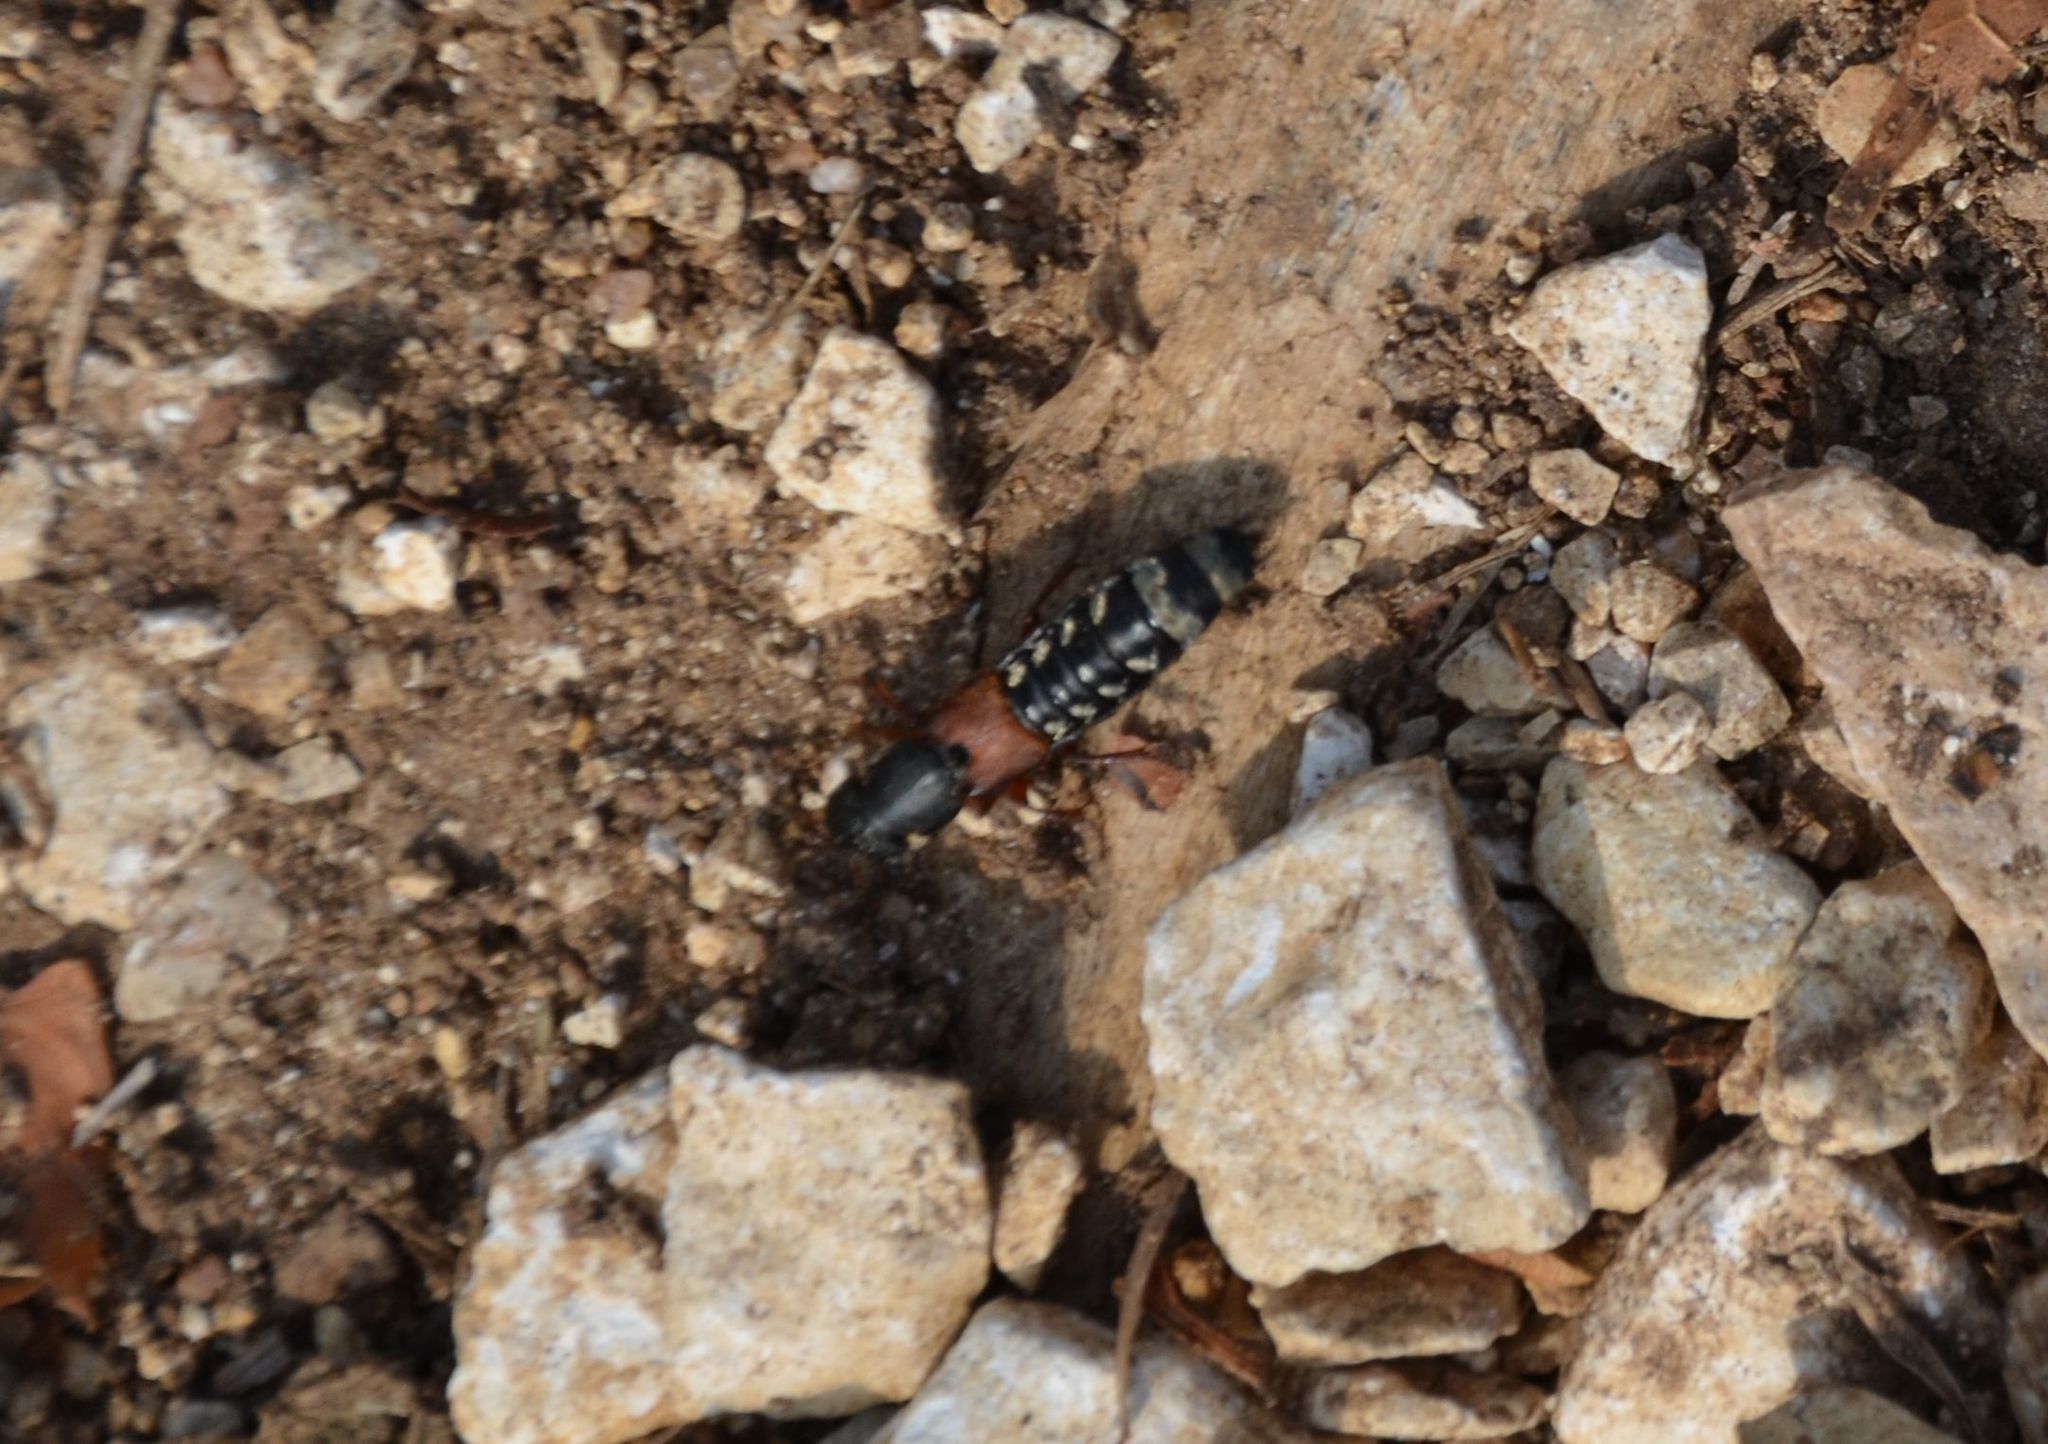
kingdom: Animalia
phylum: Arthropoda
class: Insecta
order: Coleoptera
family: Staphylinidae
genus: Platydracus
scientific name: Platydracus stercorarius
